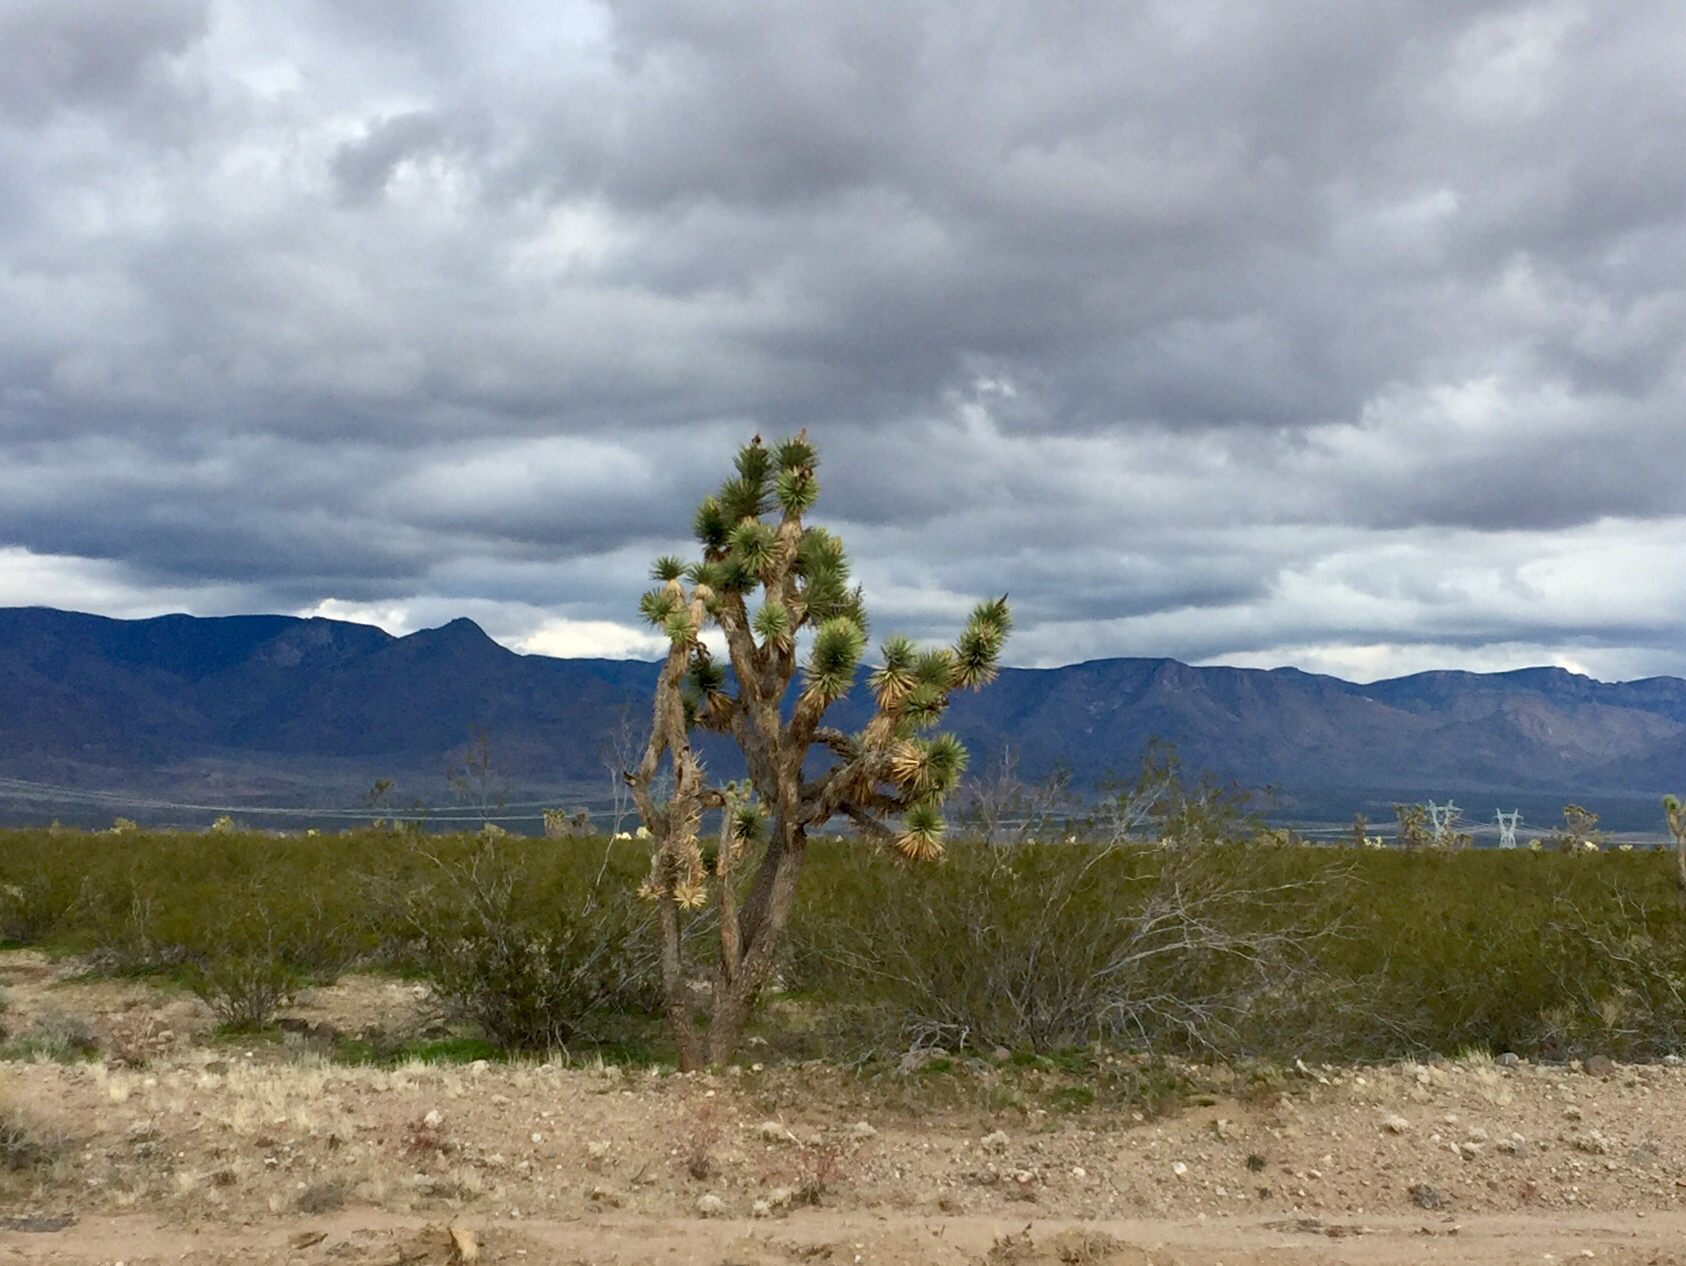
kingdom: Plantae
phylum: Tracheophyta
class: Liliopsida
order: Asparagales
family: Asparagaceae
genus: Yucca
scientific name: Yucca brevifolia
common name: Joshua tree
